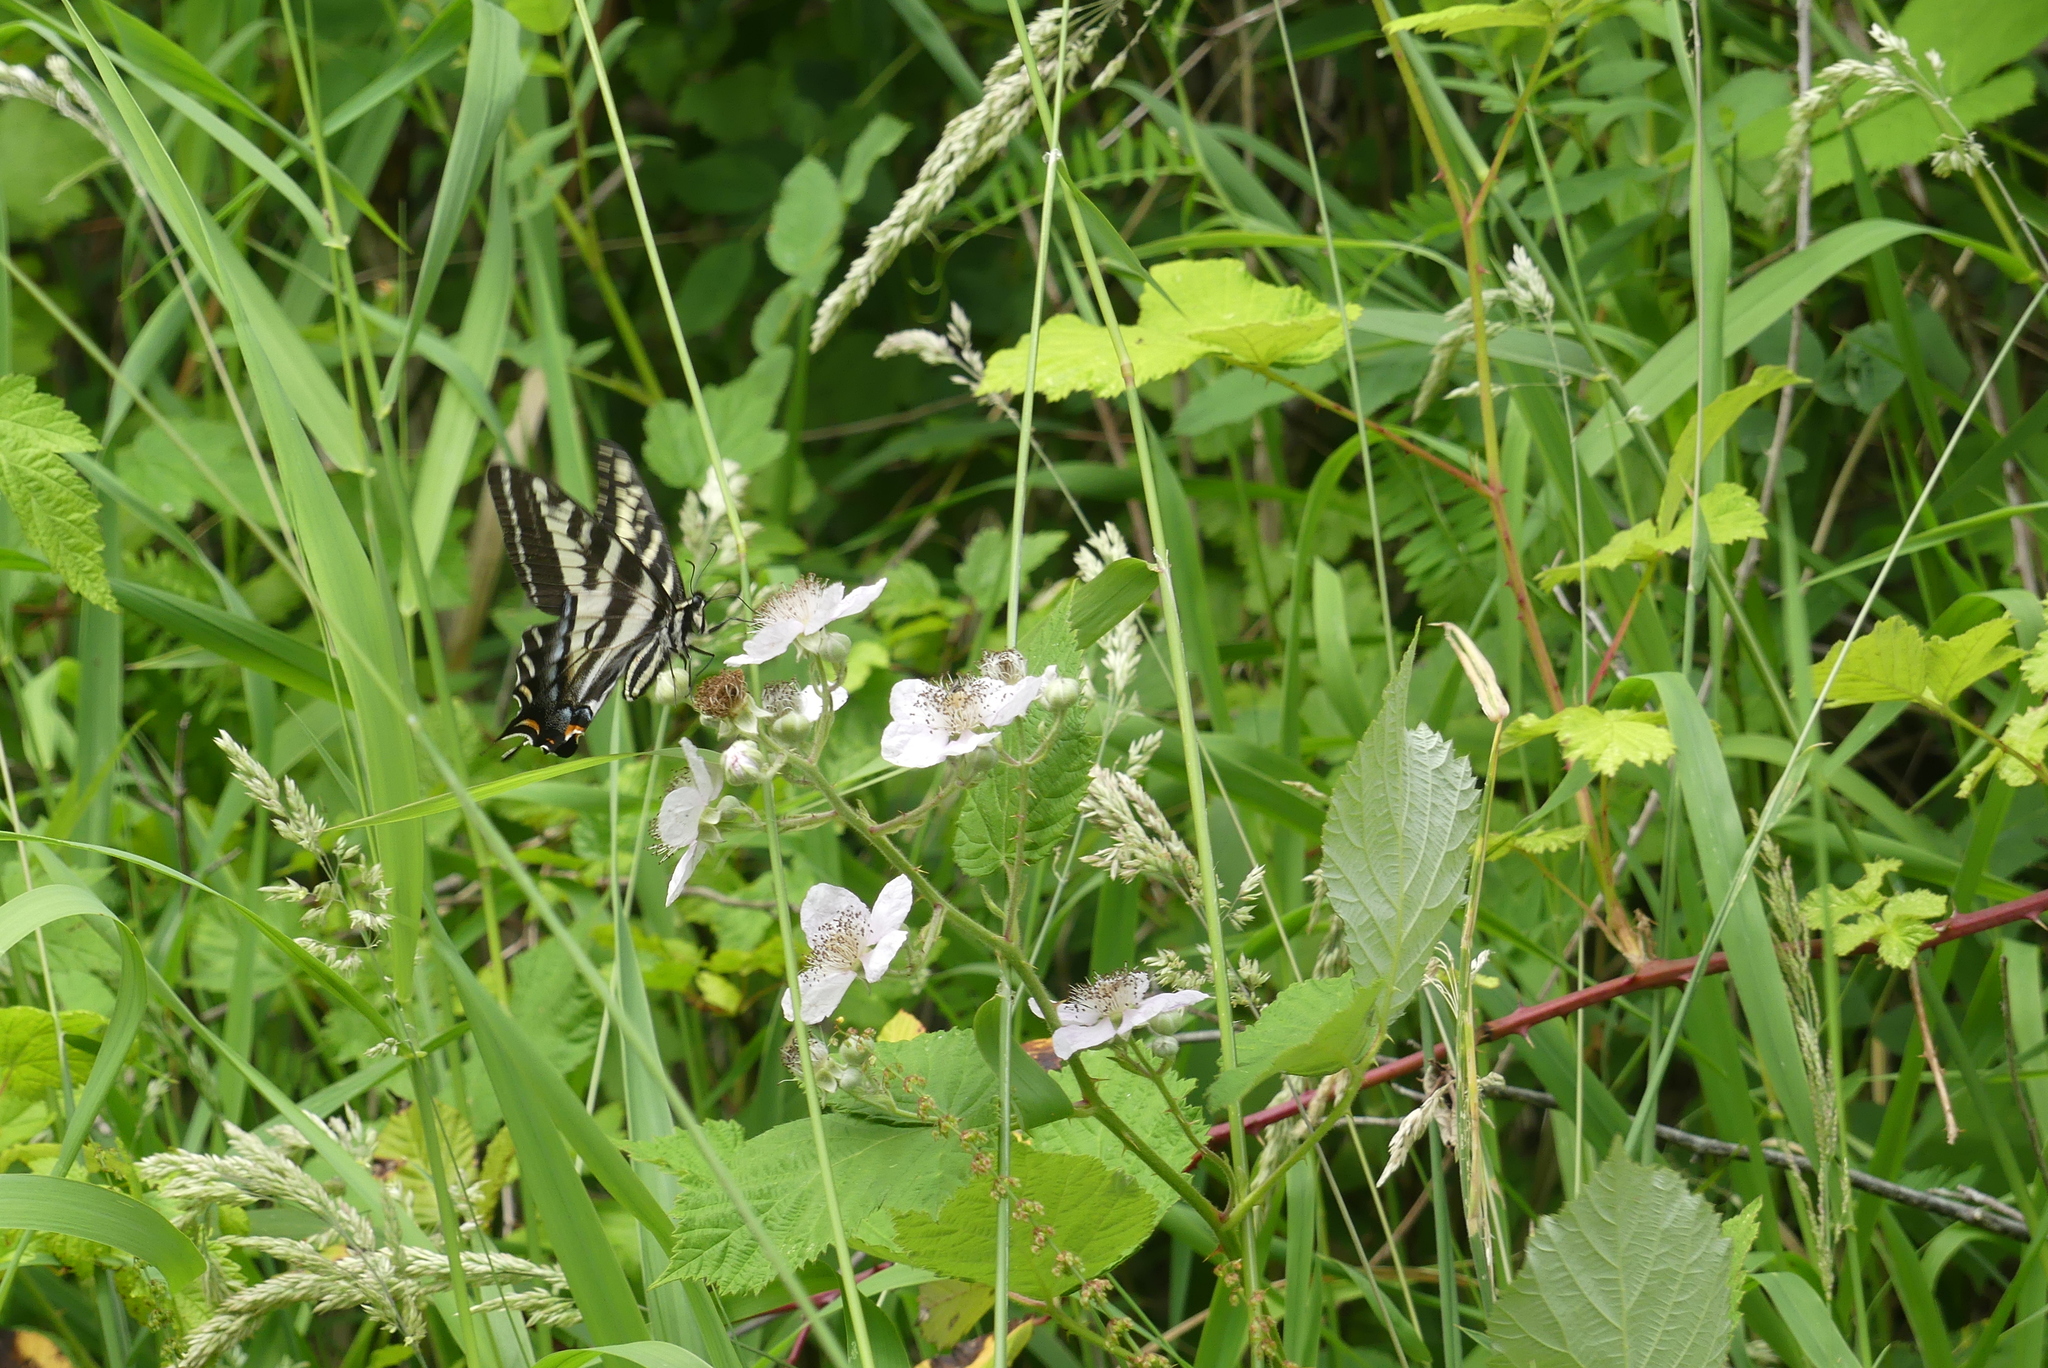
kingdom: Animalia
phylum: Arthropoda
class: Insecta
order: Lepidoptera
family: Papilionidae
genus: Papilio
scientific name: Papilio eurymedon
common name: Pale tiger swallowtail
